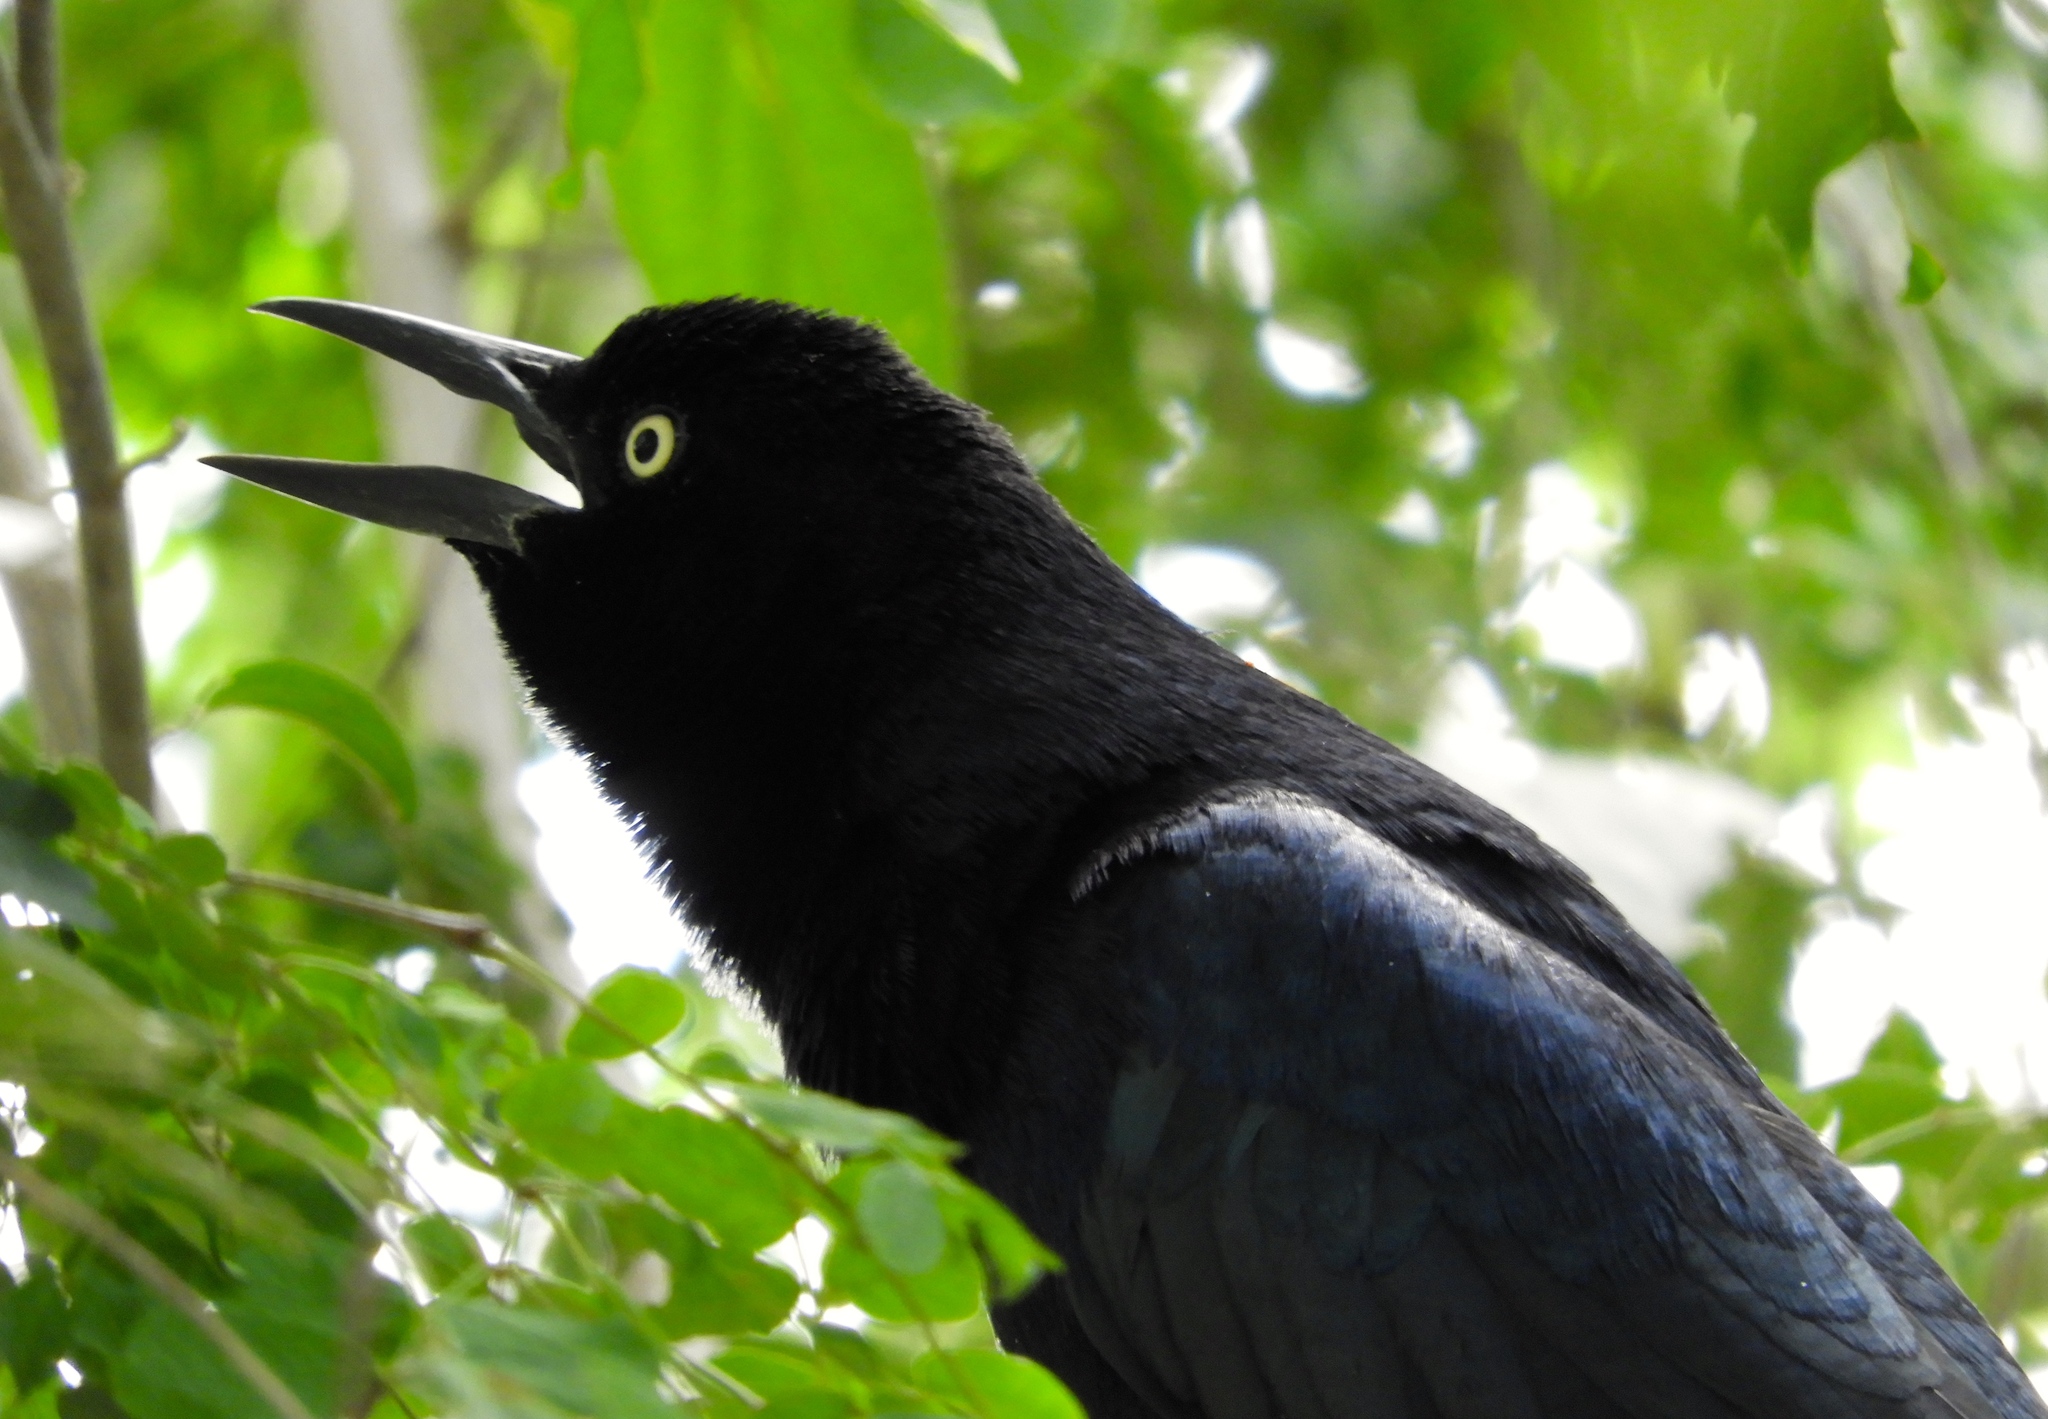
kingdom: Animalia
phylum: Chordata
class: Aves
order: Passeriformes
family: Icteridae
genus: Quiscalus
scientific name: Quiscalus mexicanus
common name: Great-tailed grackle
